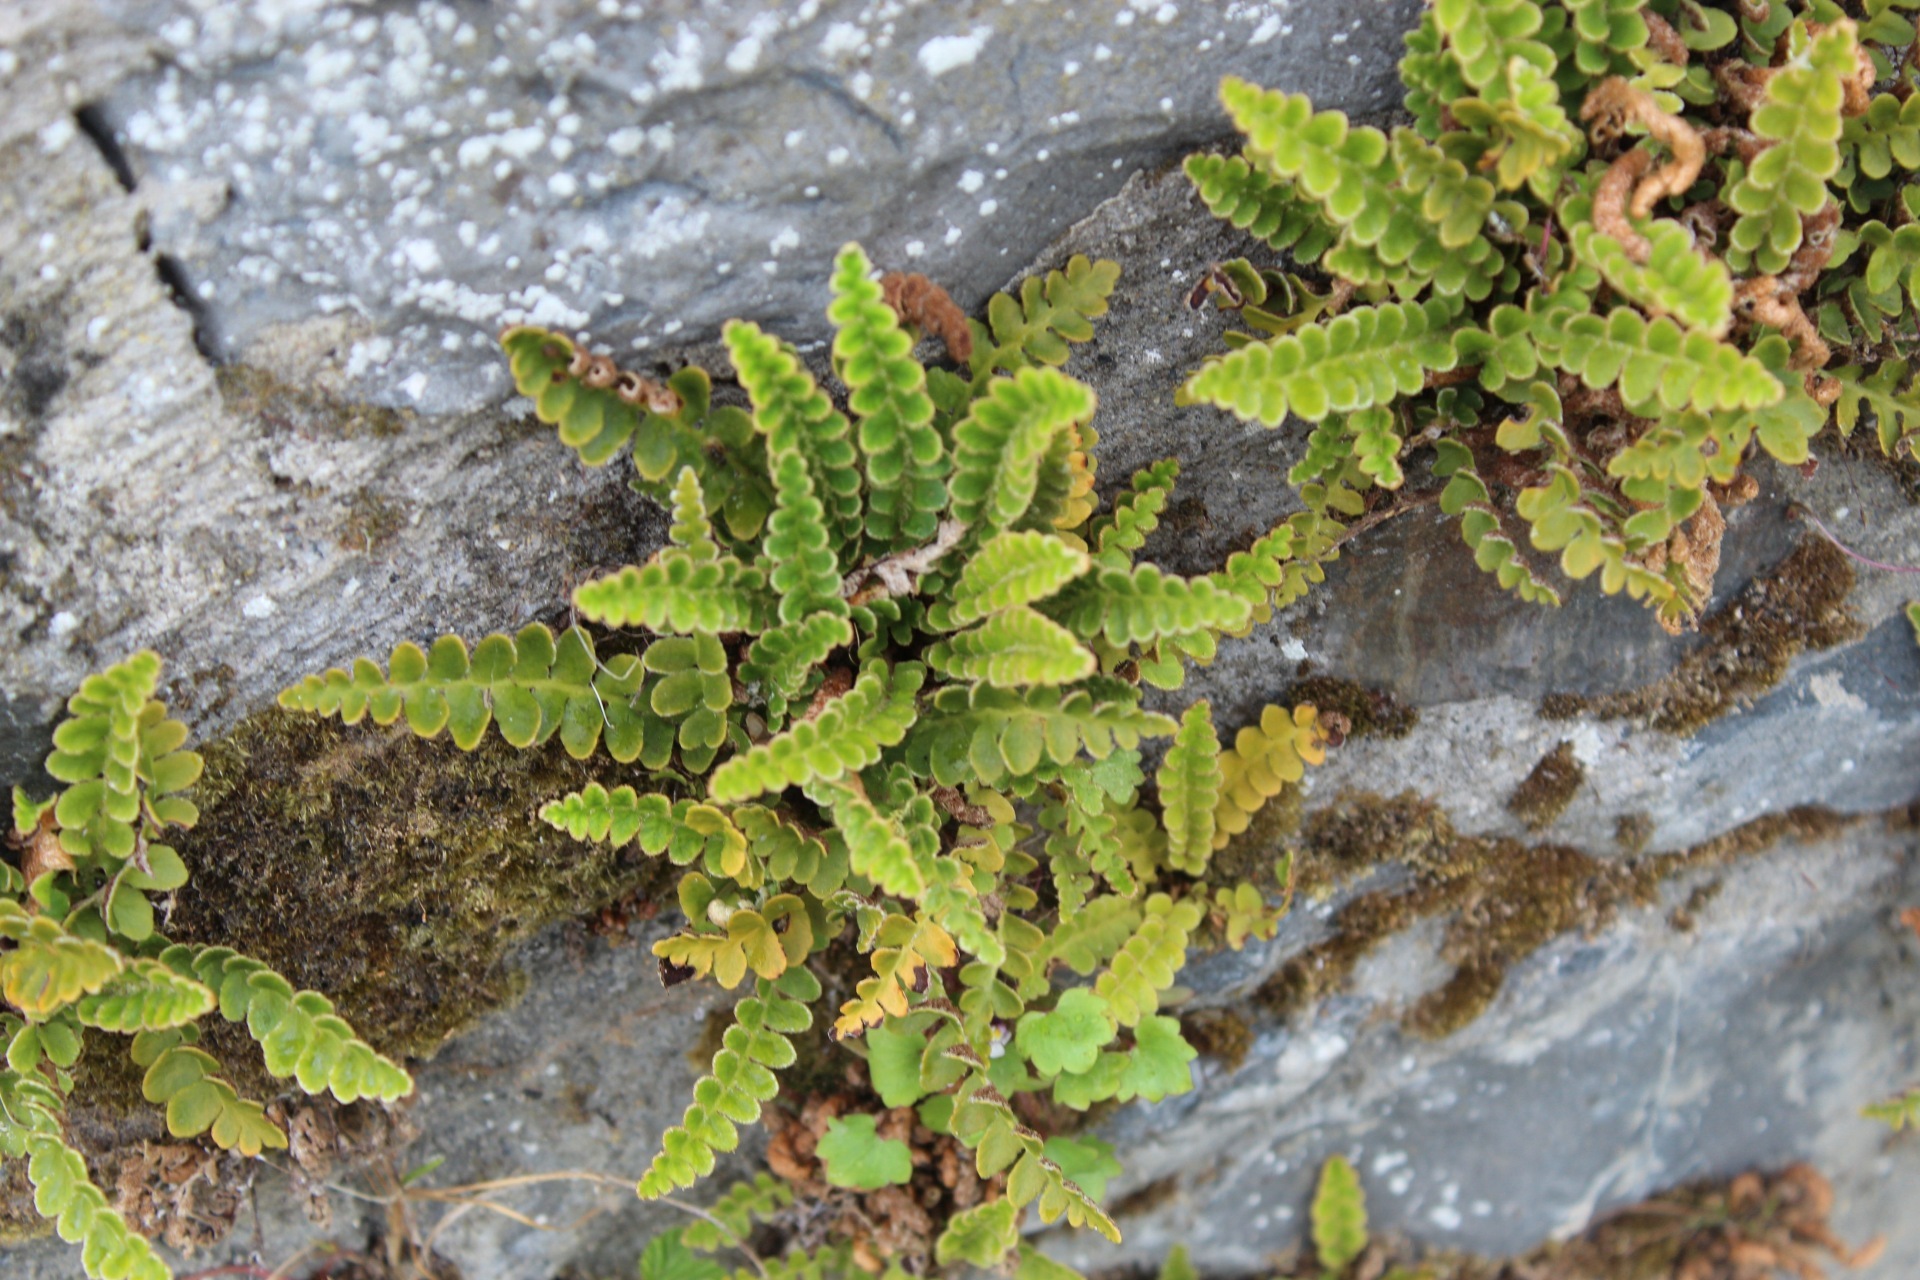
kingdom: Plantae
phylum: Tracheophyta
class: Polypodiopsida
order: Polypodiales
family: Aspleniaceae
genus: Asplenium
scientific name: Asplenium ceterach
